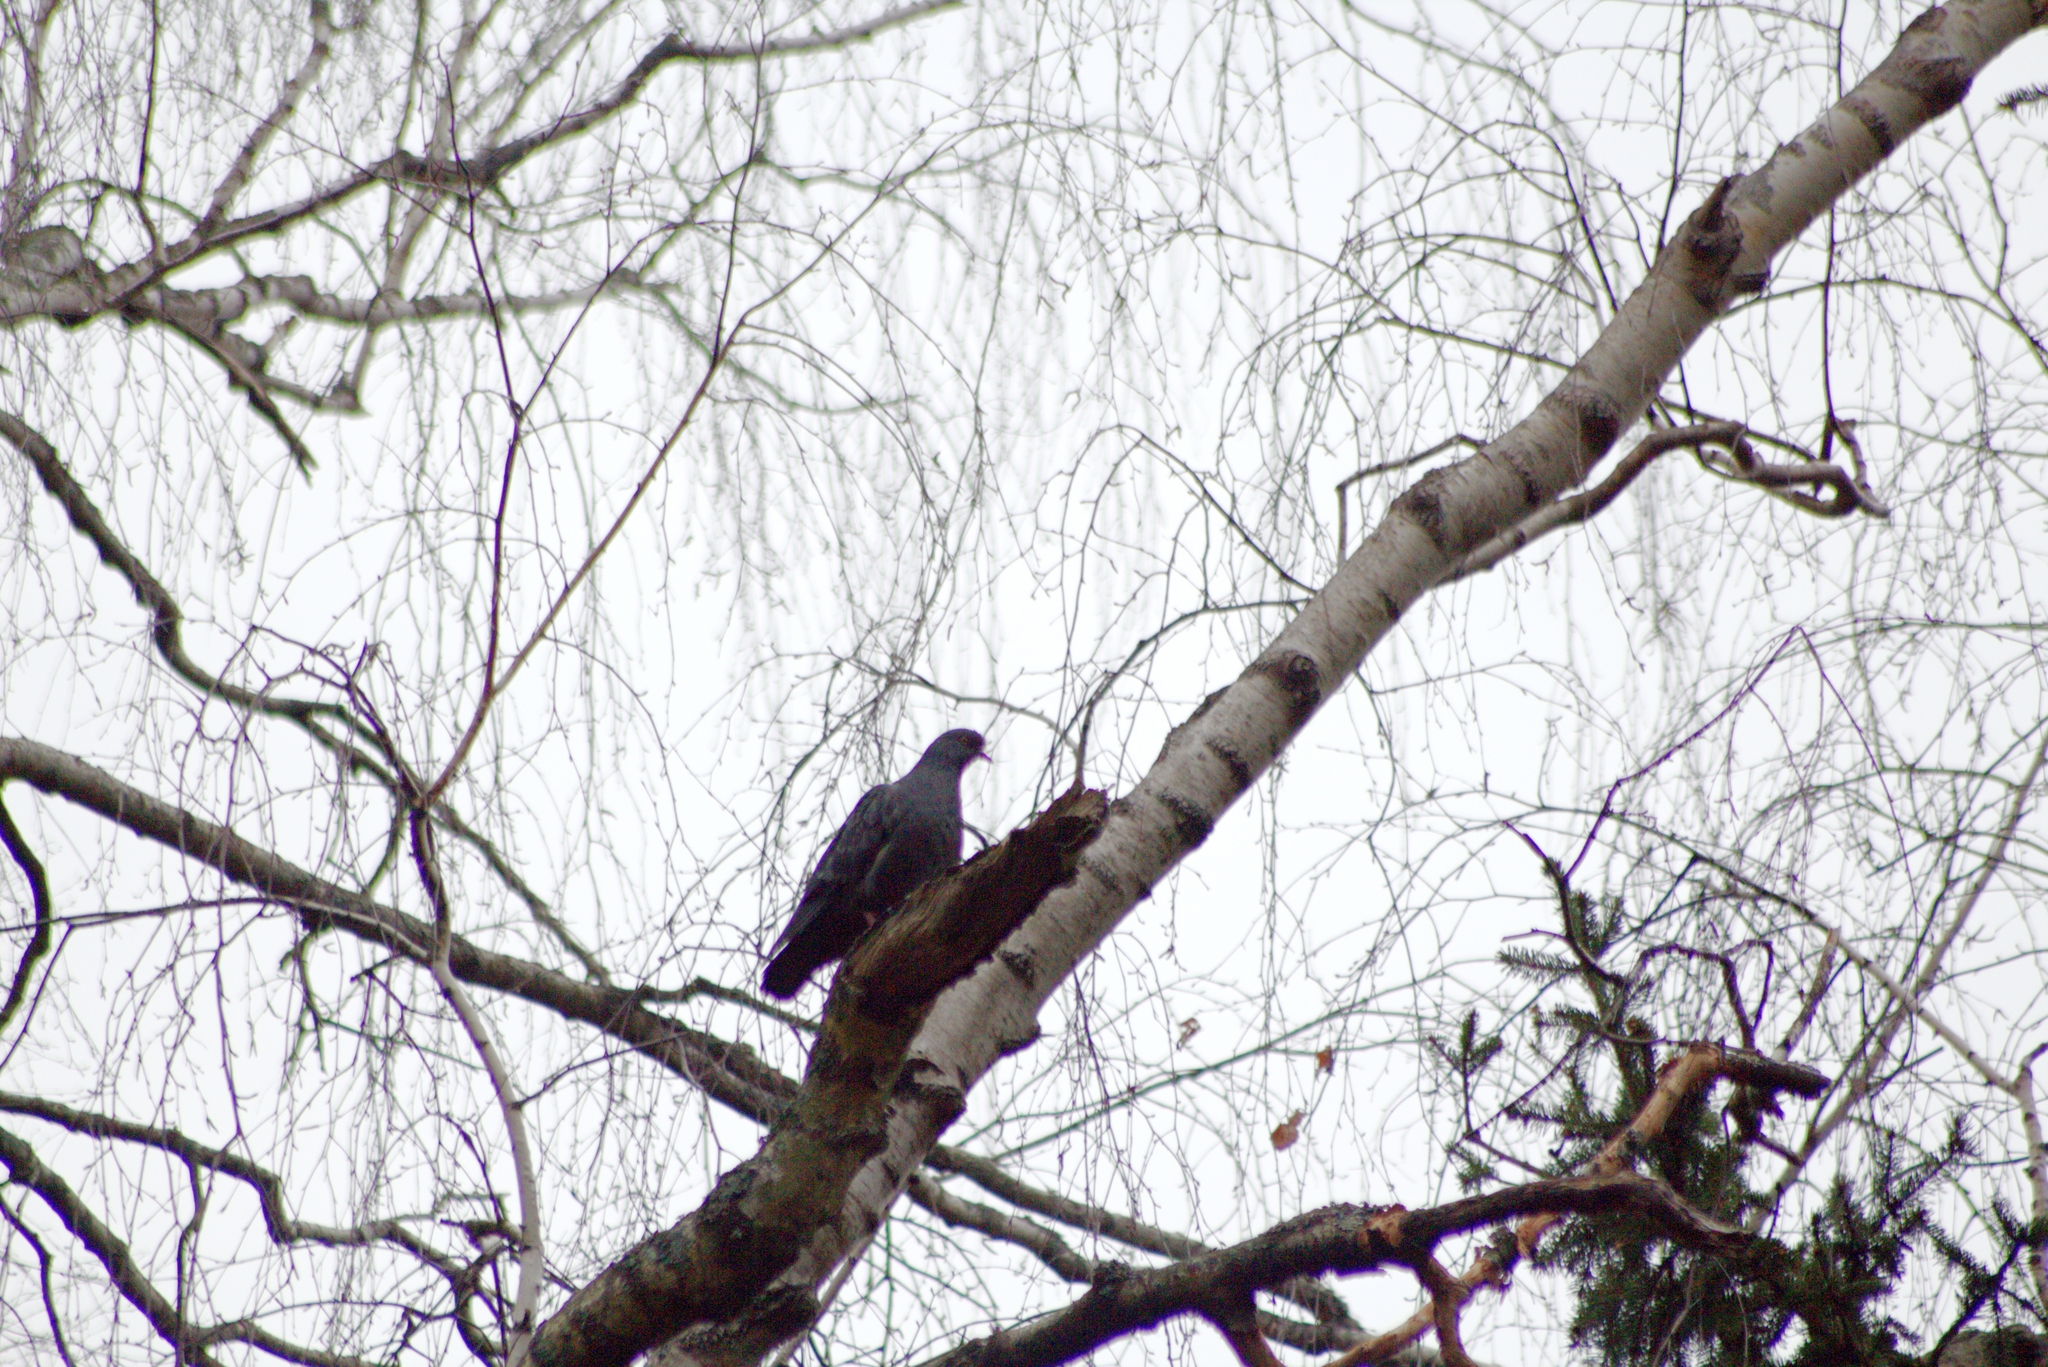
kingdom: Animalia
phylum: Chordata
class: Aves
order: Columbiformes
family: Columbidae
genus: Columba
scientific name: Columba livia
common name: Rock pigeon
